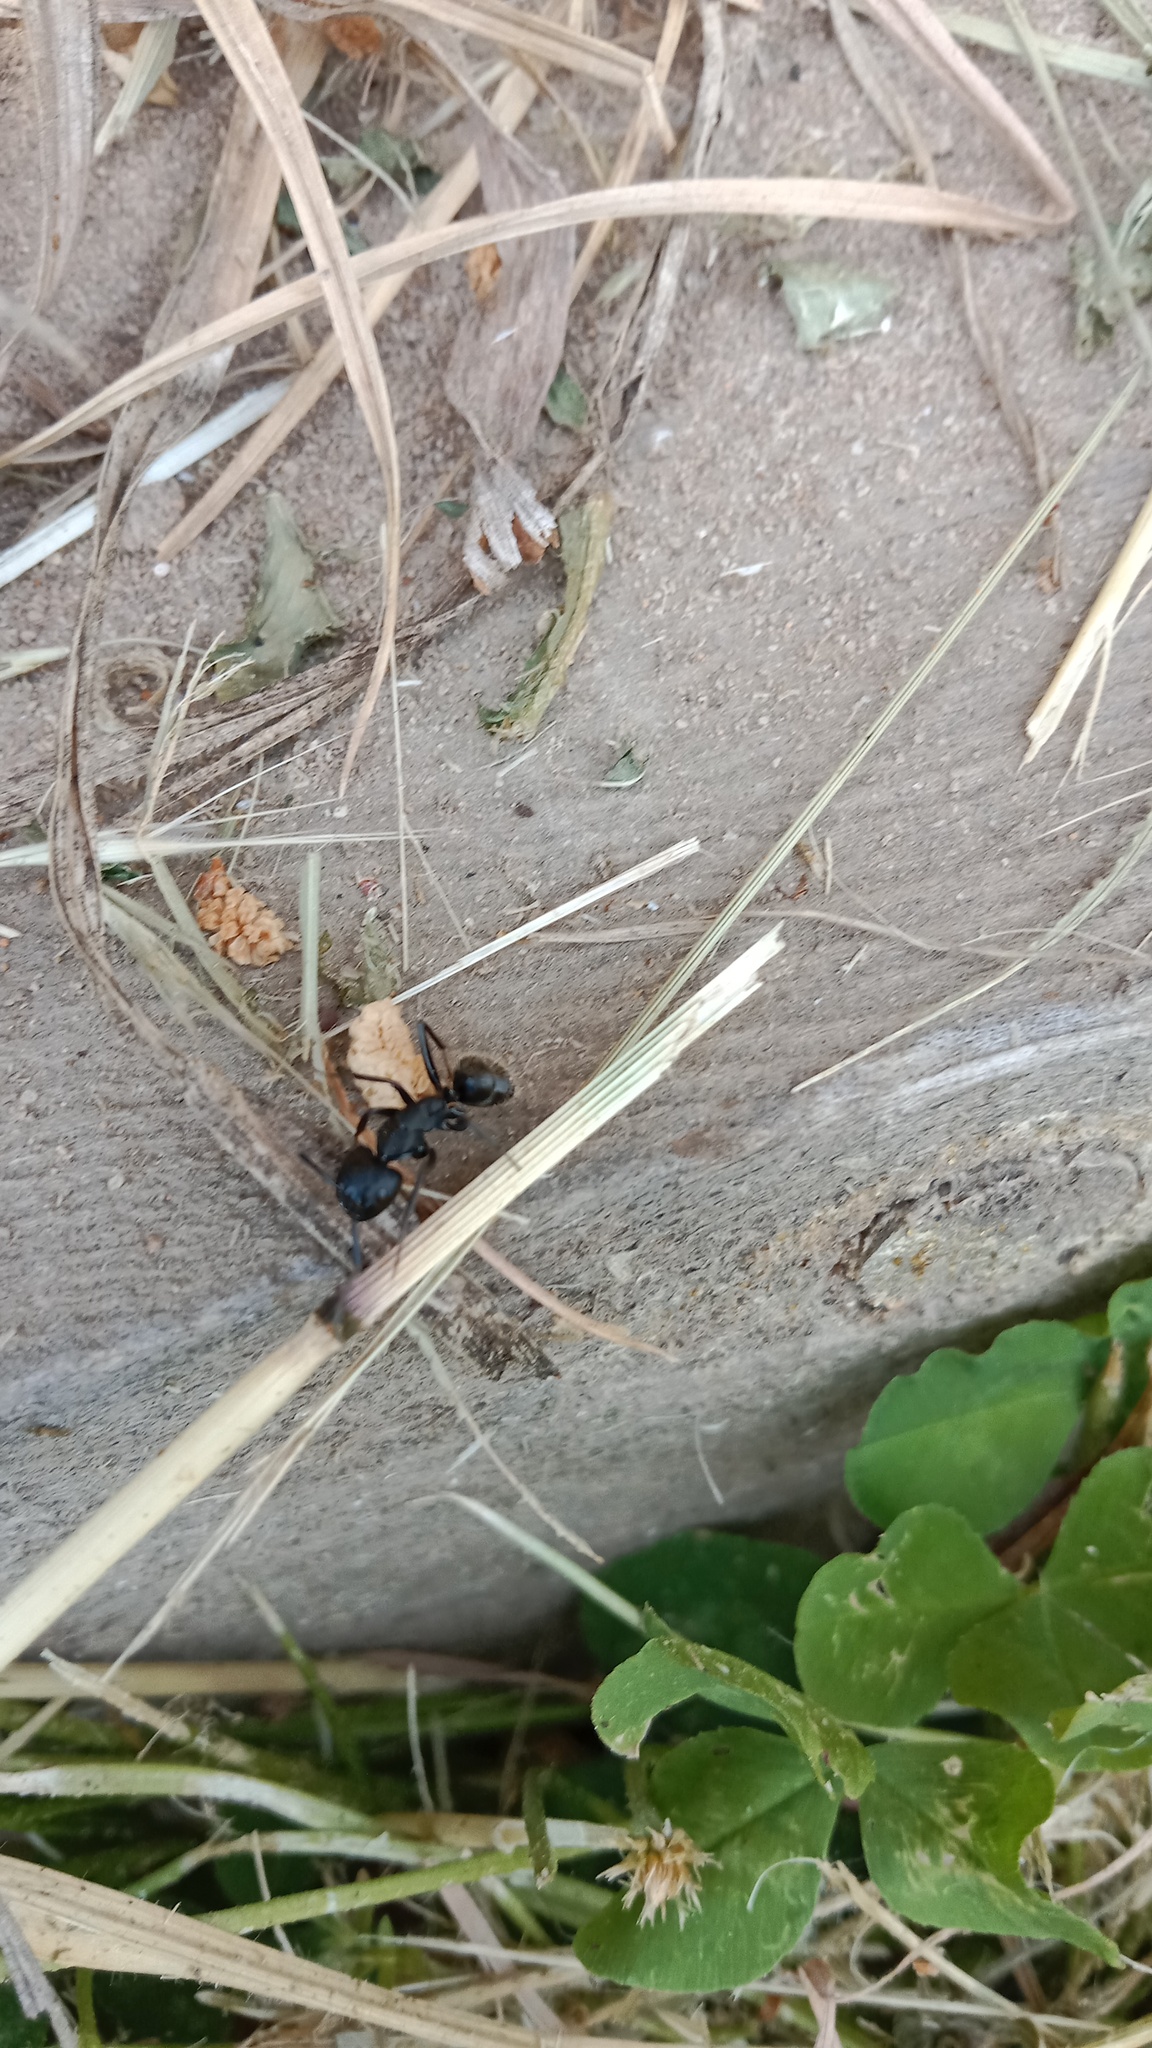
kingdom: Animalia
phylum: Arthropoda
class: Insecta
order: Hymenoptera
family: Formicidae
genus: Camponotus
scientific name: Camponotus vagus
